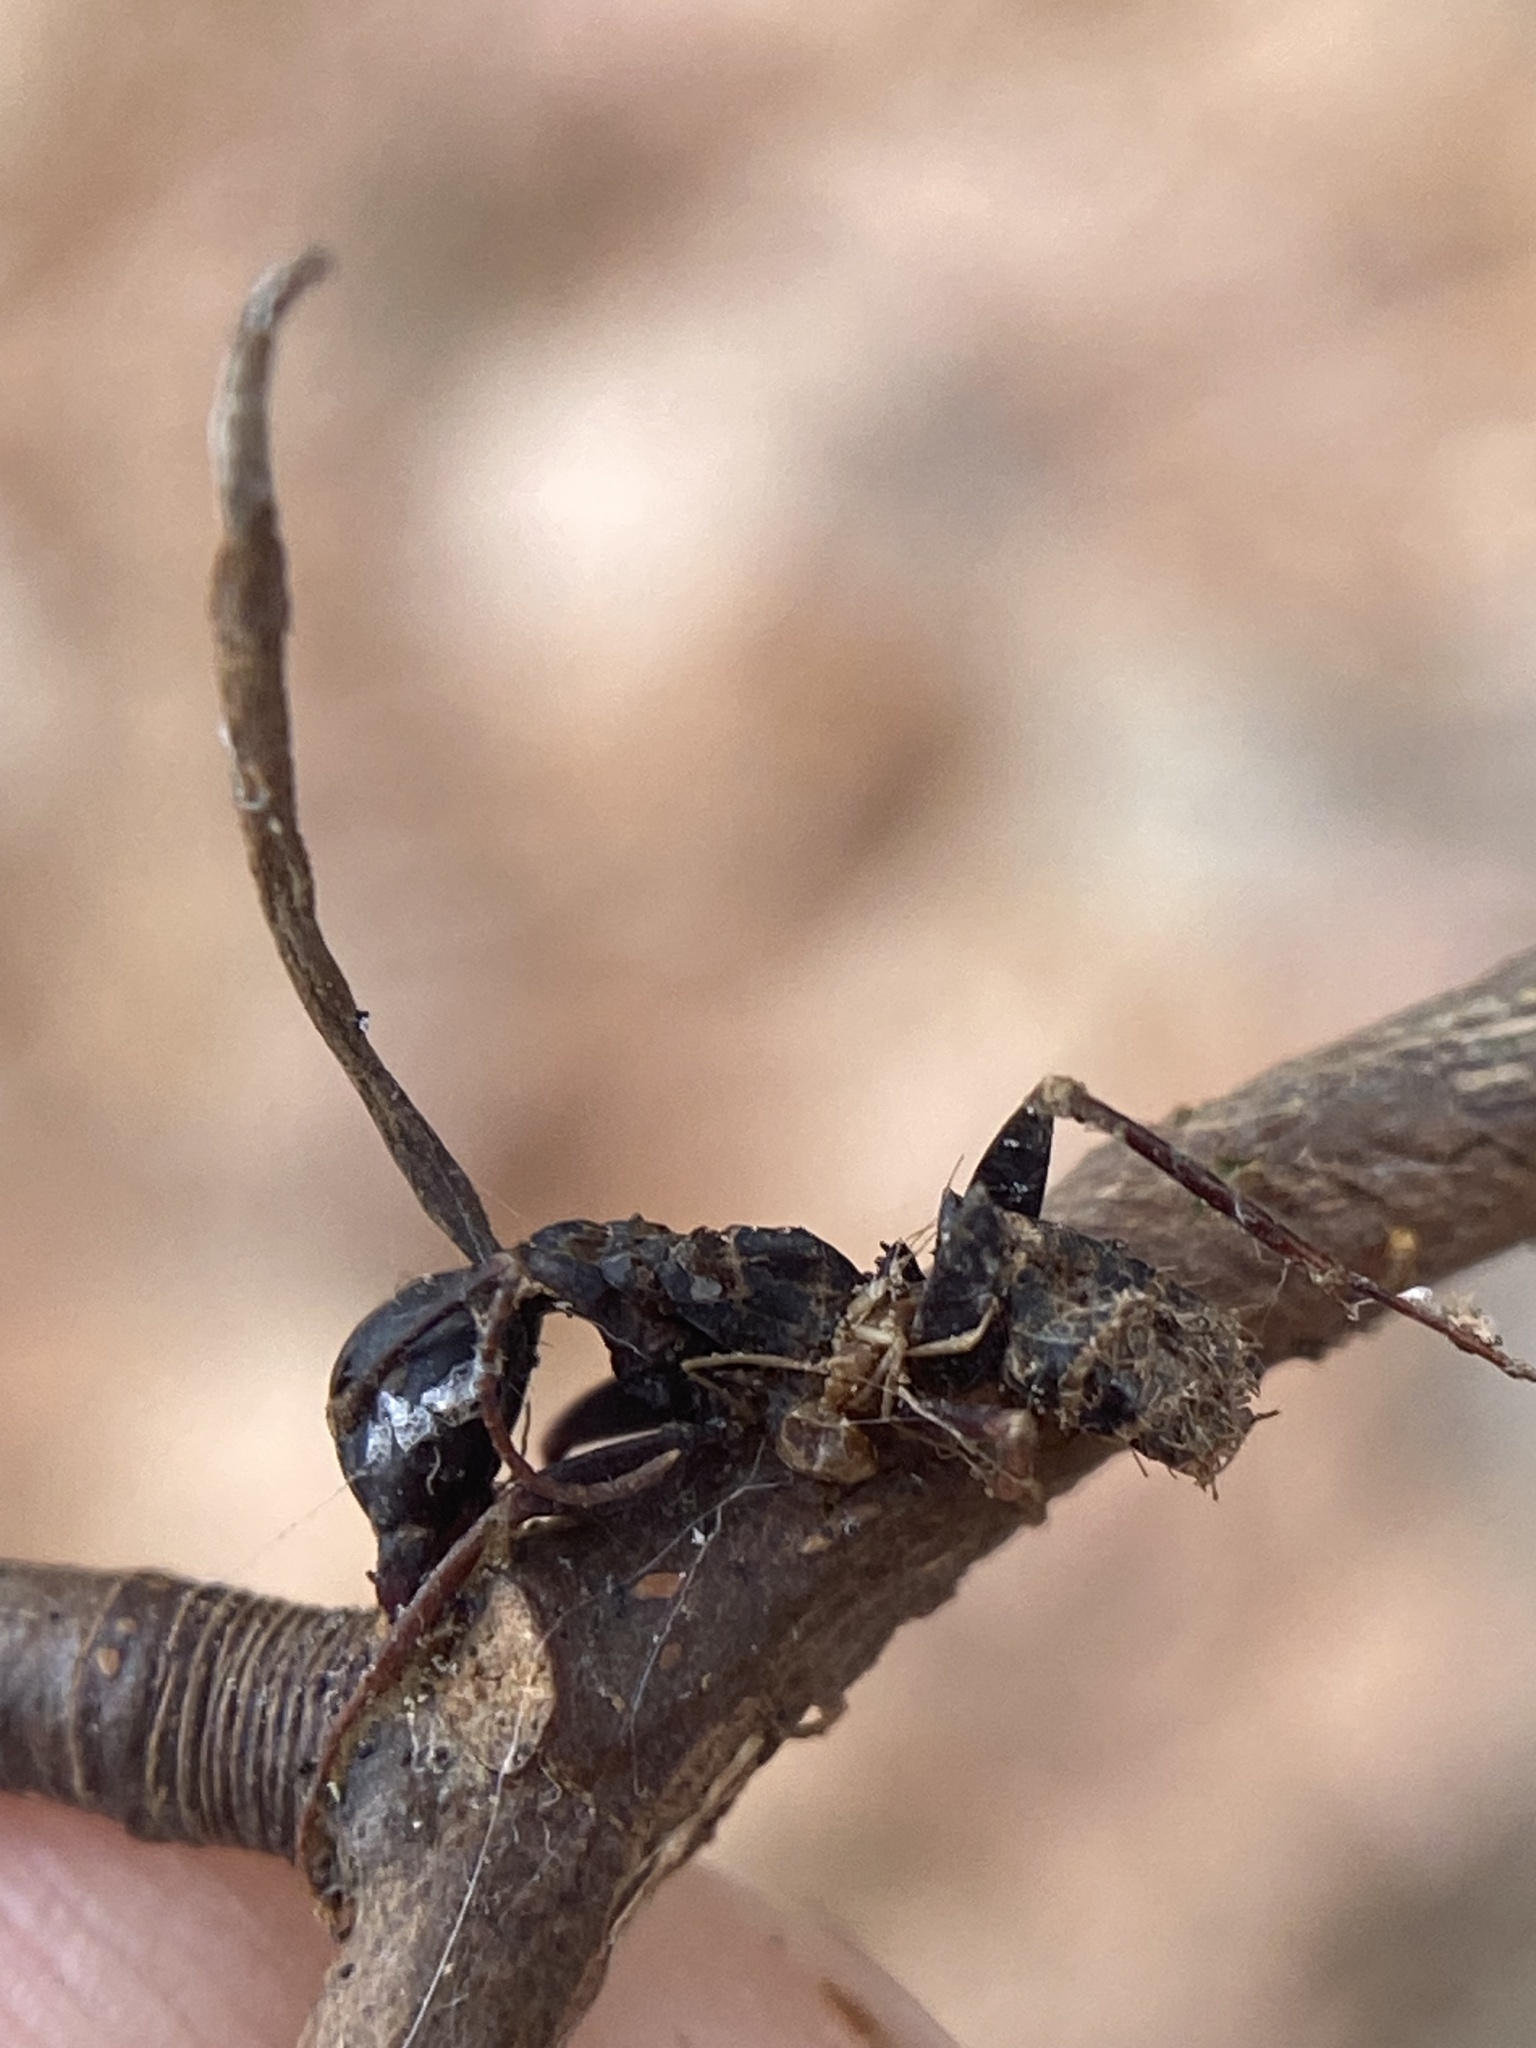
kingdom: Fungi
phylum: Ascomycota
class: Sordariomycetes
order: Hypocreales
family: Ophiocordycipitaceae
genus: Ophiocordyceps
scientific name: Ophiocordyceps kimflemingiae
